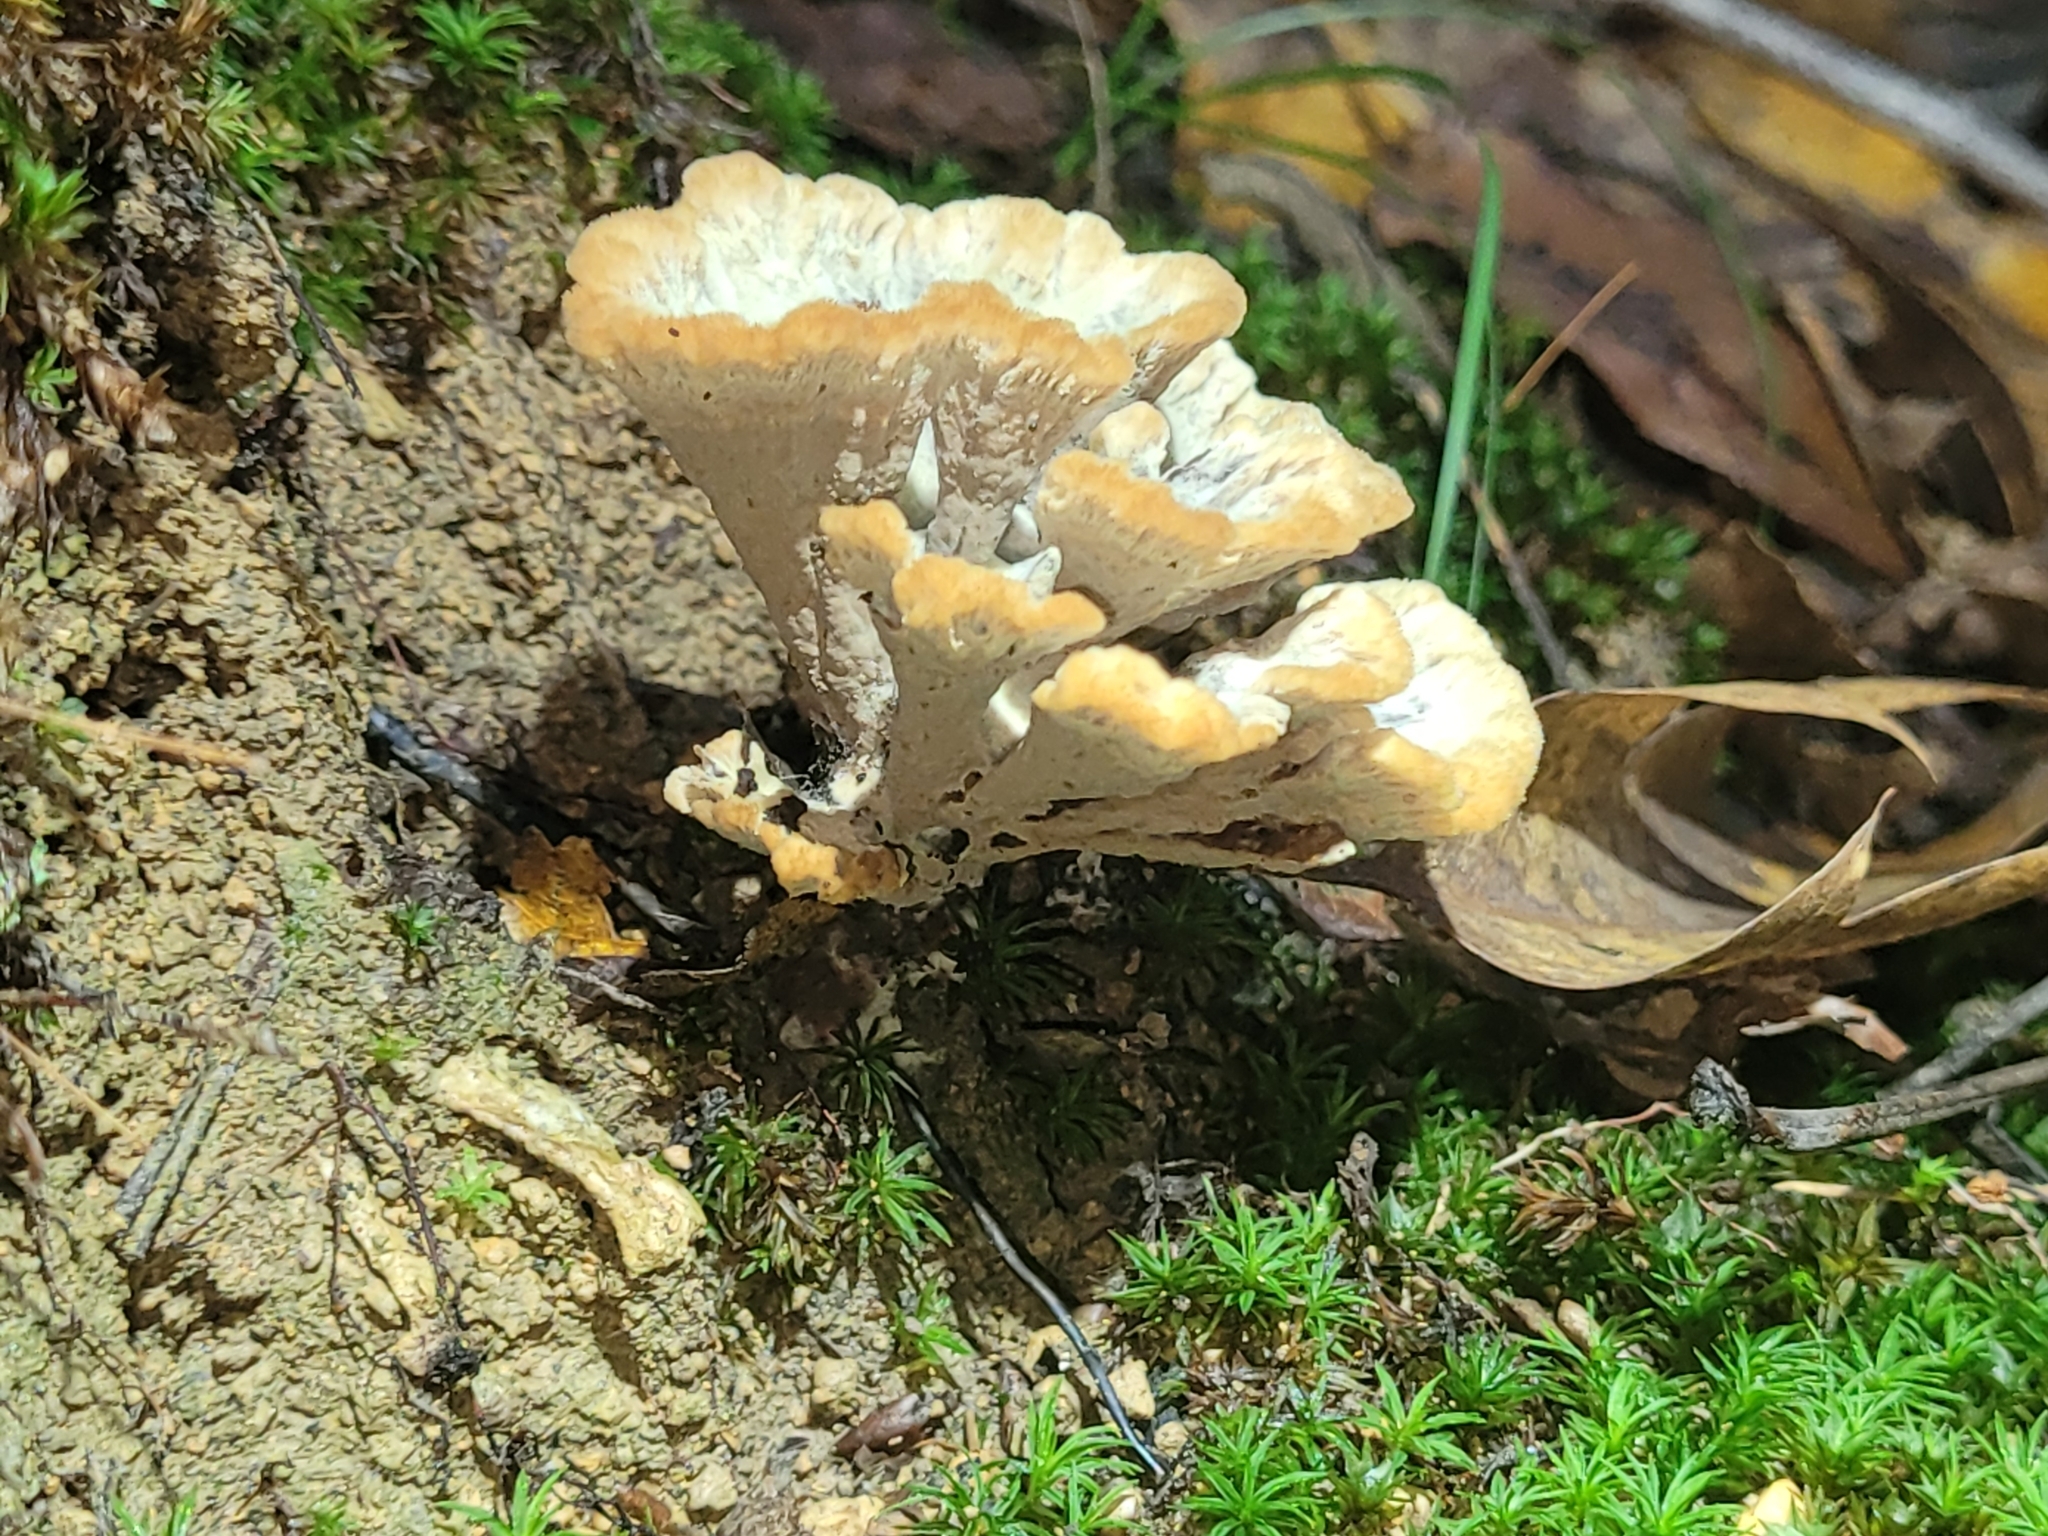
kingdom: Fungi
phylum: Basidiomycota
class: Agaricomycetes
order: Thelephorales
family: Thelephoraceae
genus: Thelephora
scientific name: Thelephora vialis
